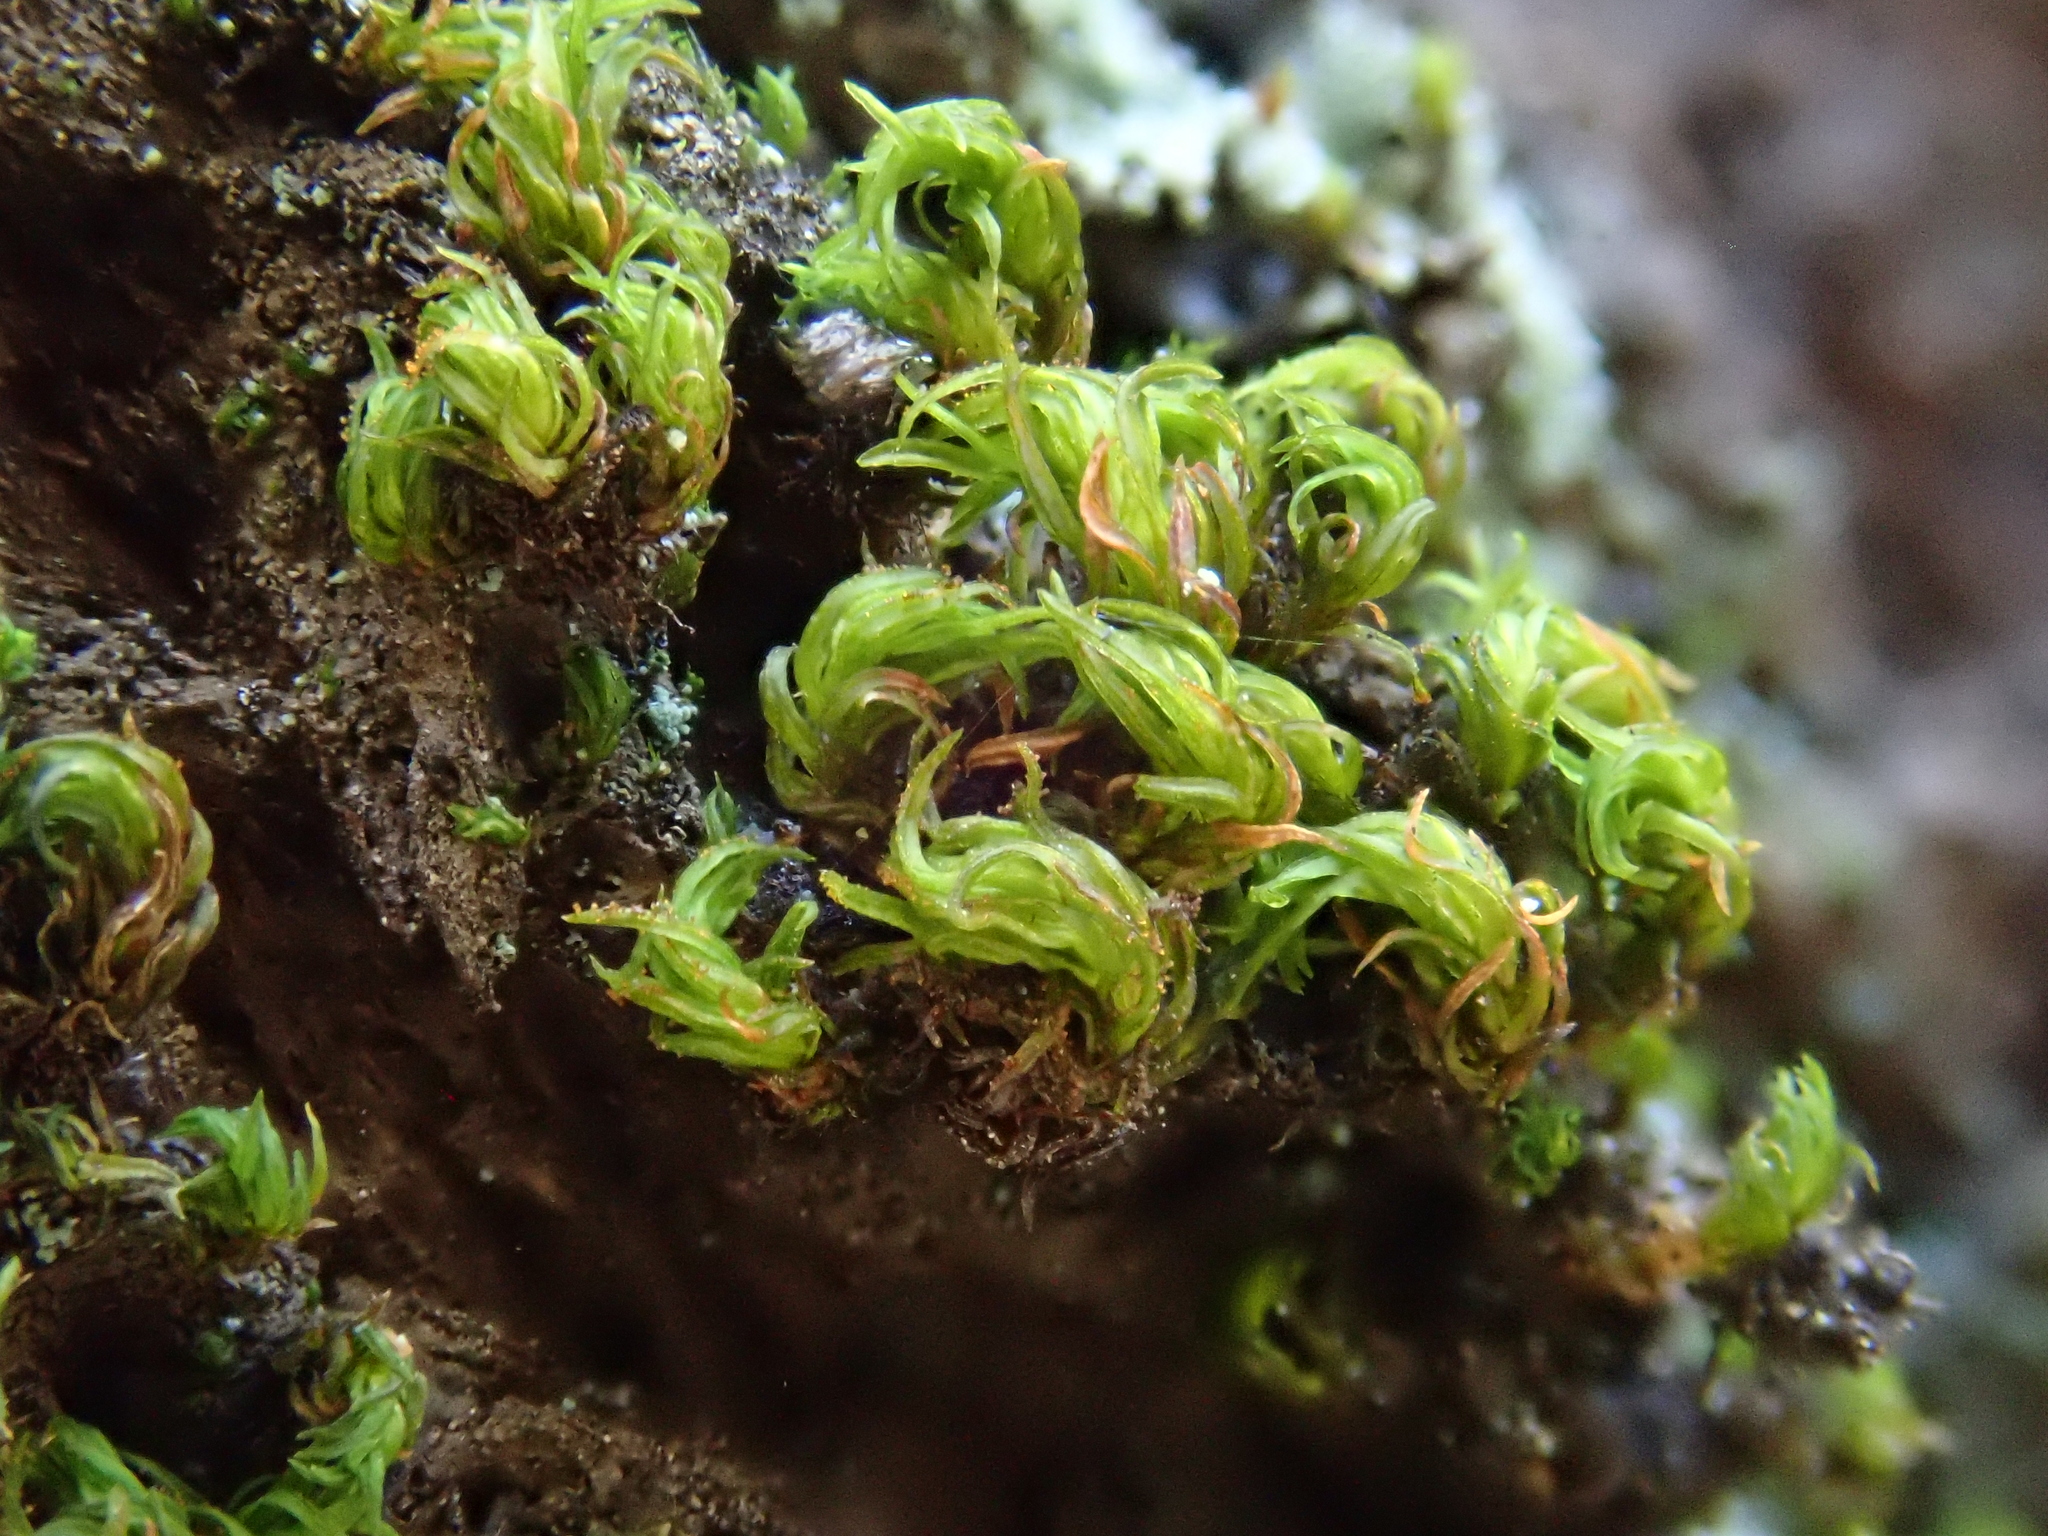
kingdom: Plantae
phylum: Bryophyta
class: Bryopsida
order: Orthotrichales
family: Orthotrichaceae
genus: Pulvigera
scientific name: Pulvigera lyellii
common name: Lyell's bristle-moss
